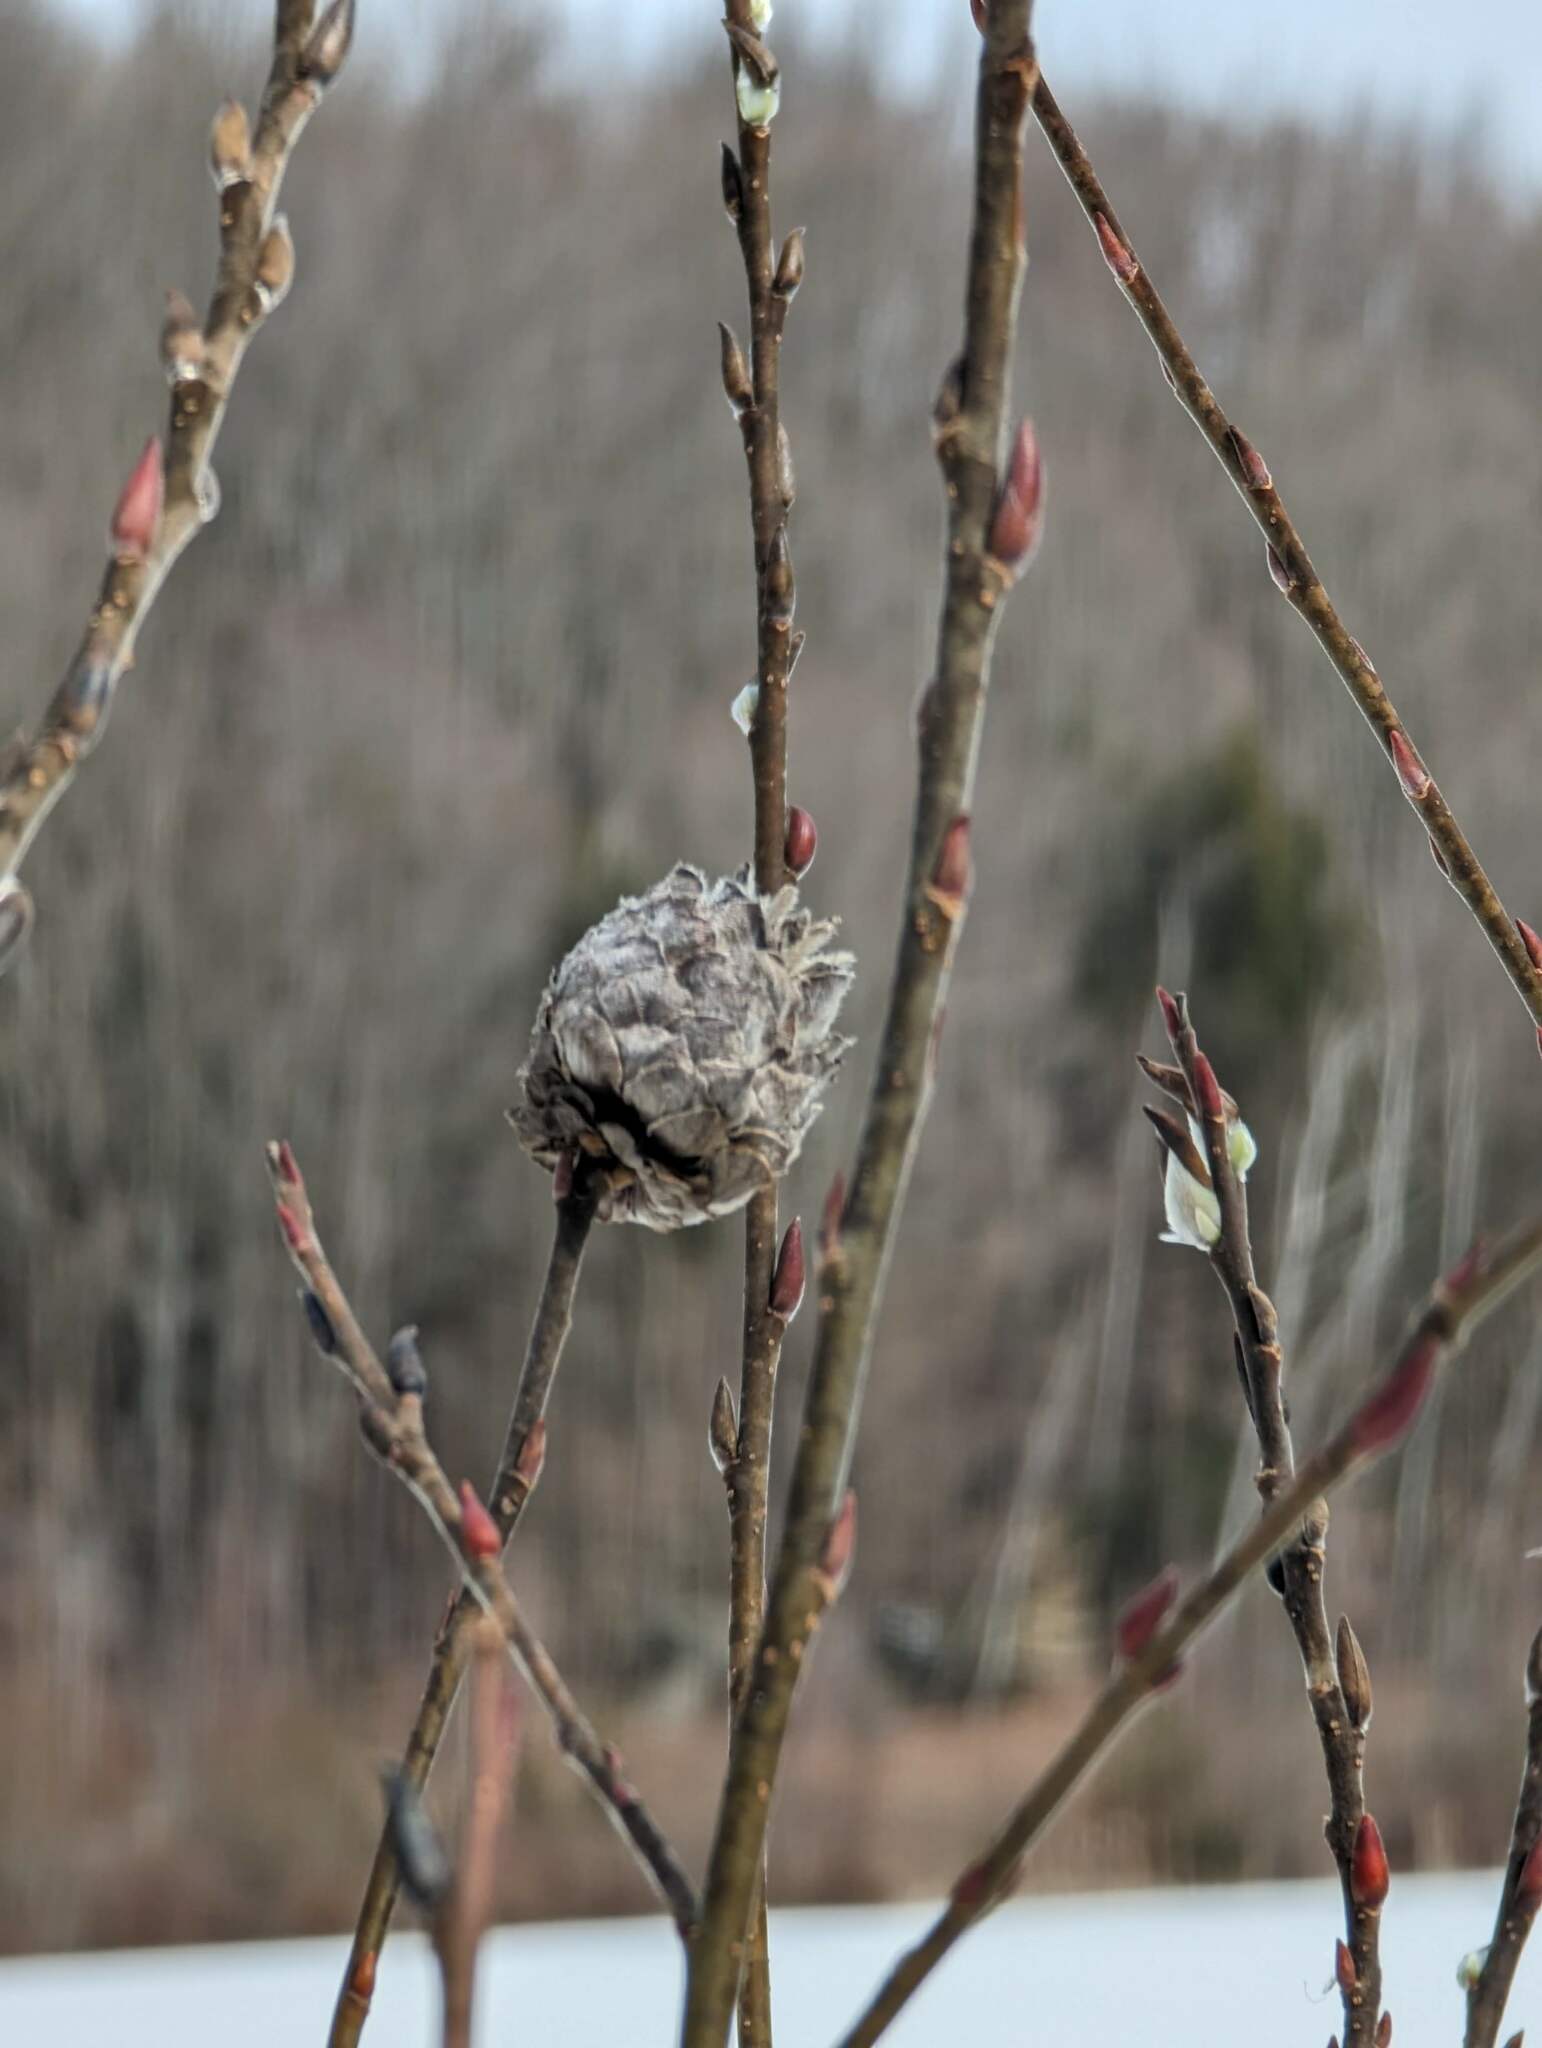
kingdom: Animalia
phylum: Arthropoda
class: Insecta
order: Diptera
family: Cecidomyiidae
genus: Rabdophaga
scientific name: Rabdophaga strobiloides
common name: Willow pinecone gall midge
